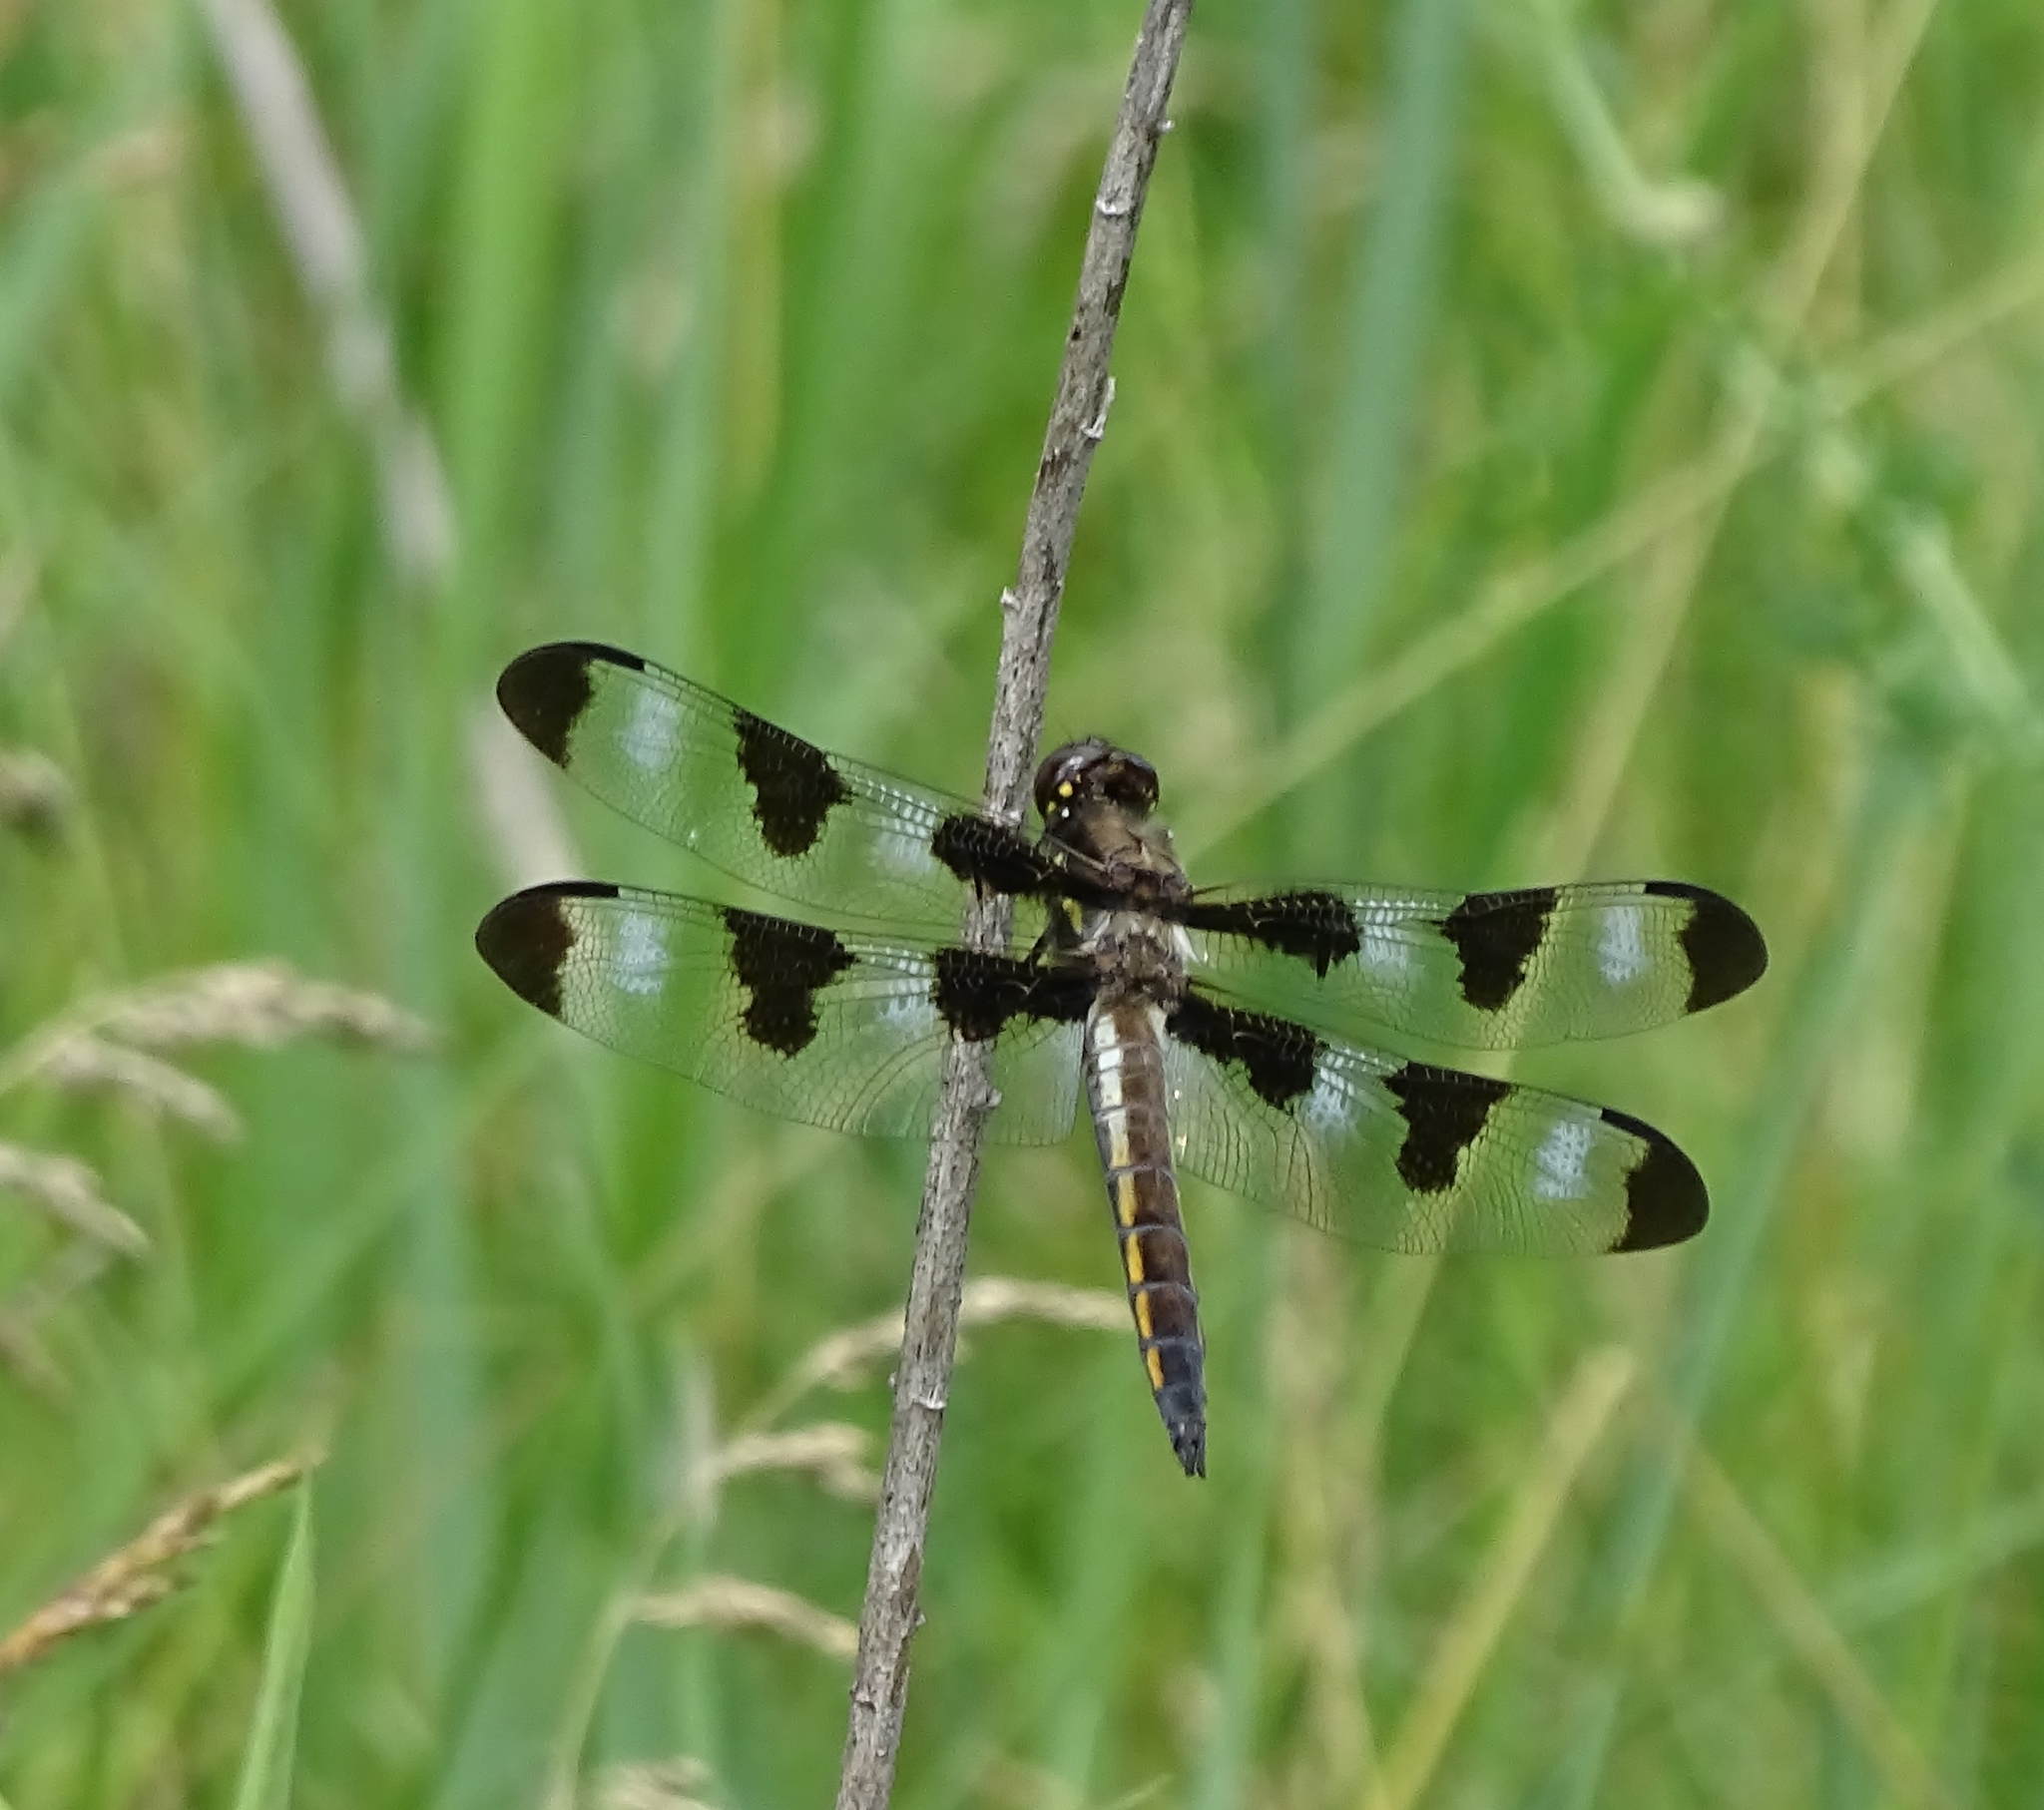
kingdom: Animalia
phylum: Arthropoda
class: Insecta
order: Odonata
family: Libellulidae
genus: Libellula
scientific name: Libellula pulchella
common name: Twelve-spotted skimmer
